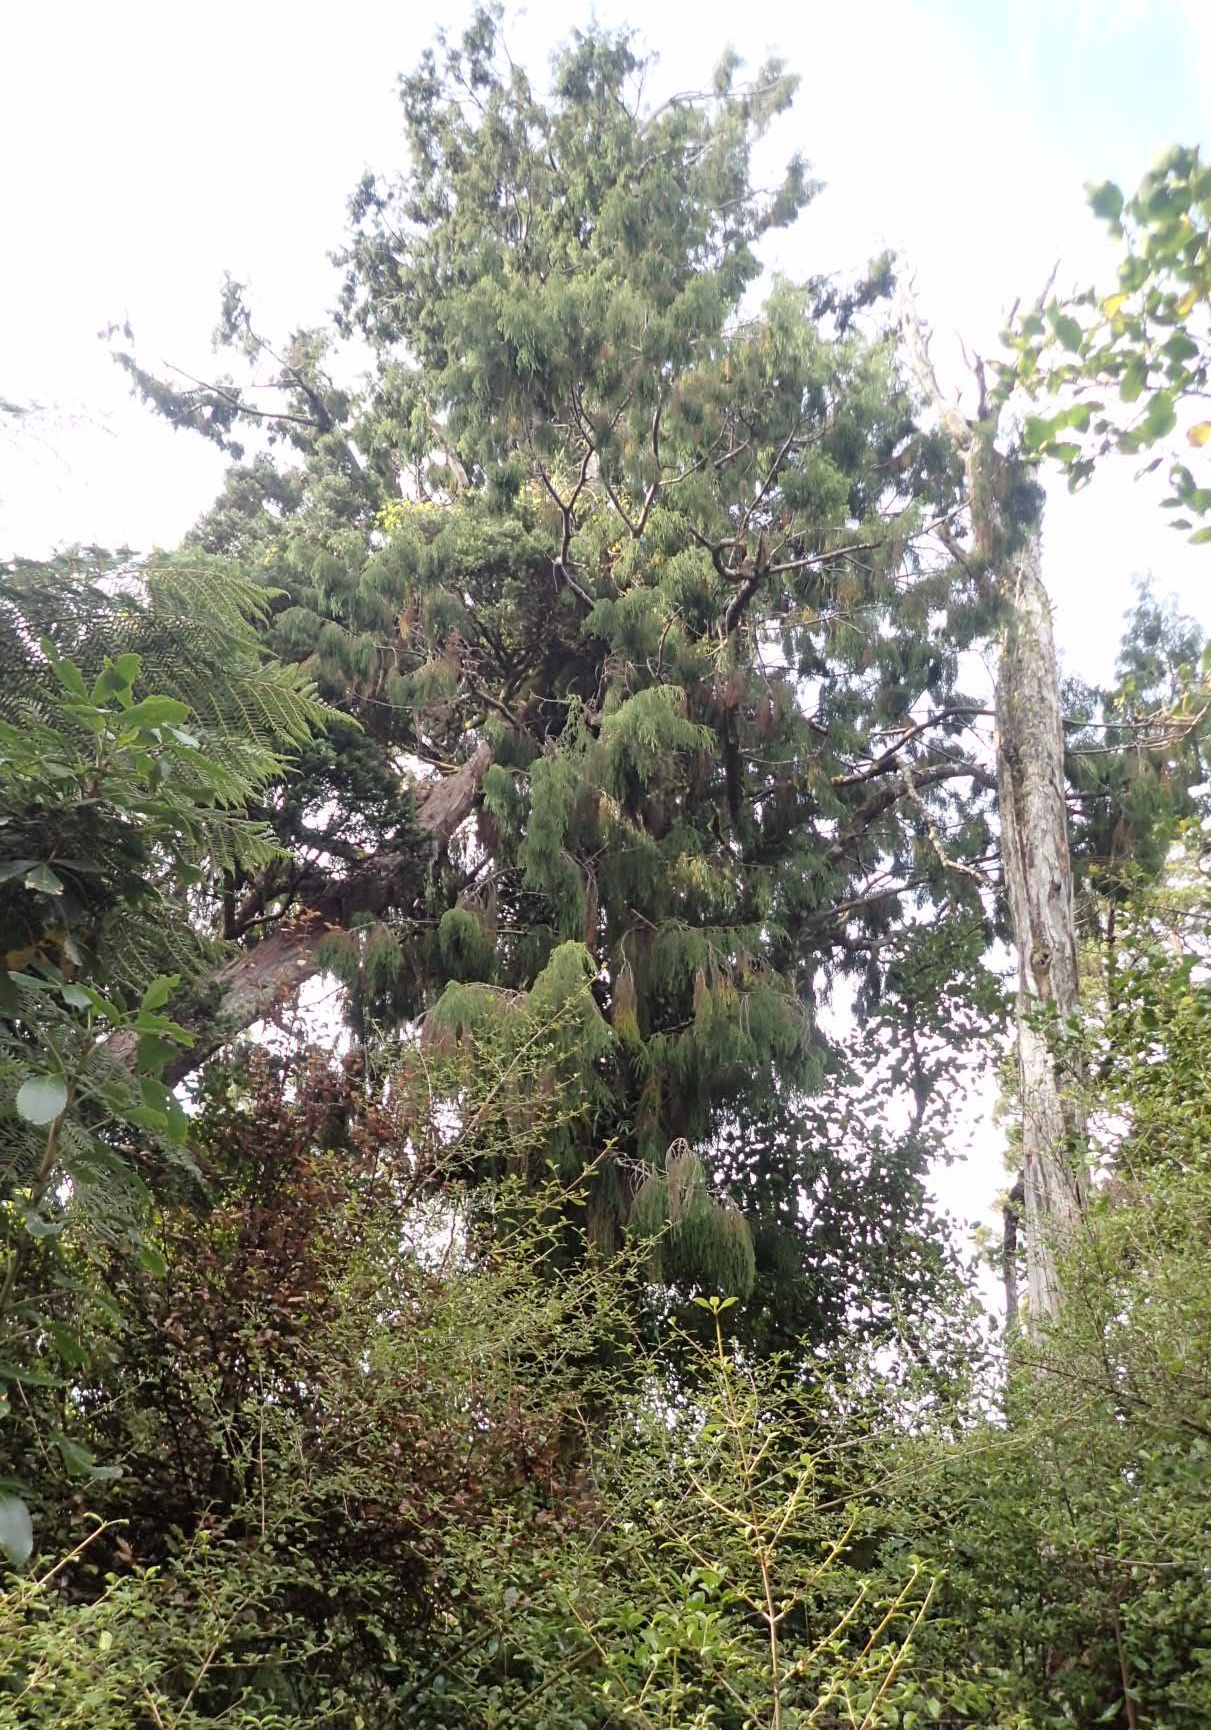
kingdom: Plantae
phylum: Tracheophyta
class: Pinopsida
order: Pinales
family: Podocarpaceae
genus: Dacrydium
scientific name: Dacrydium cupressinum
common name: Red pine
